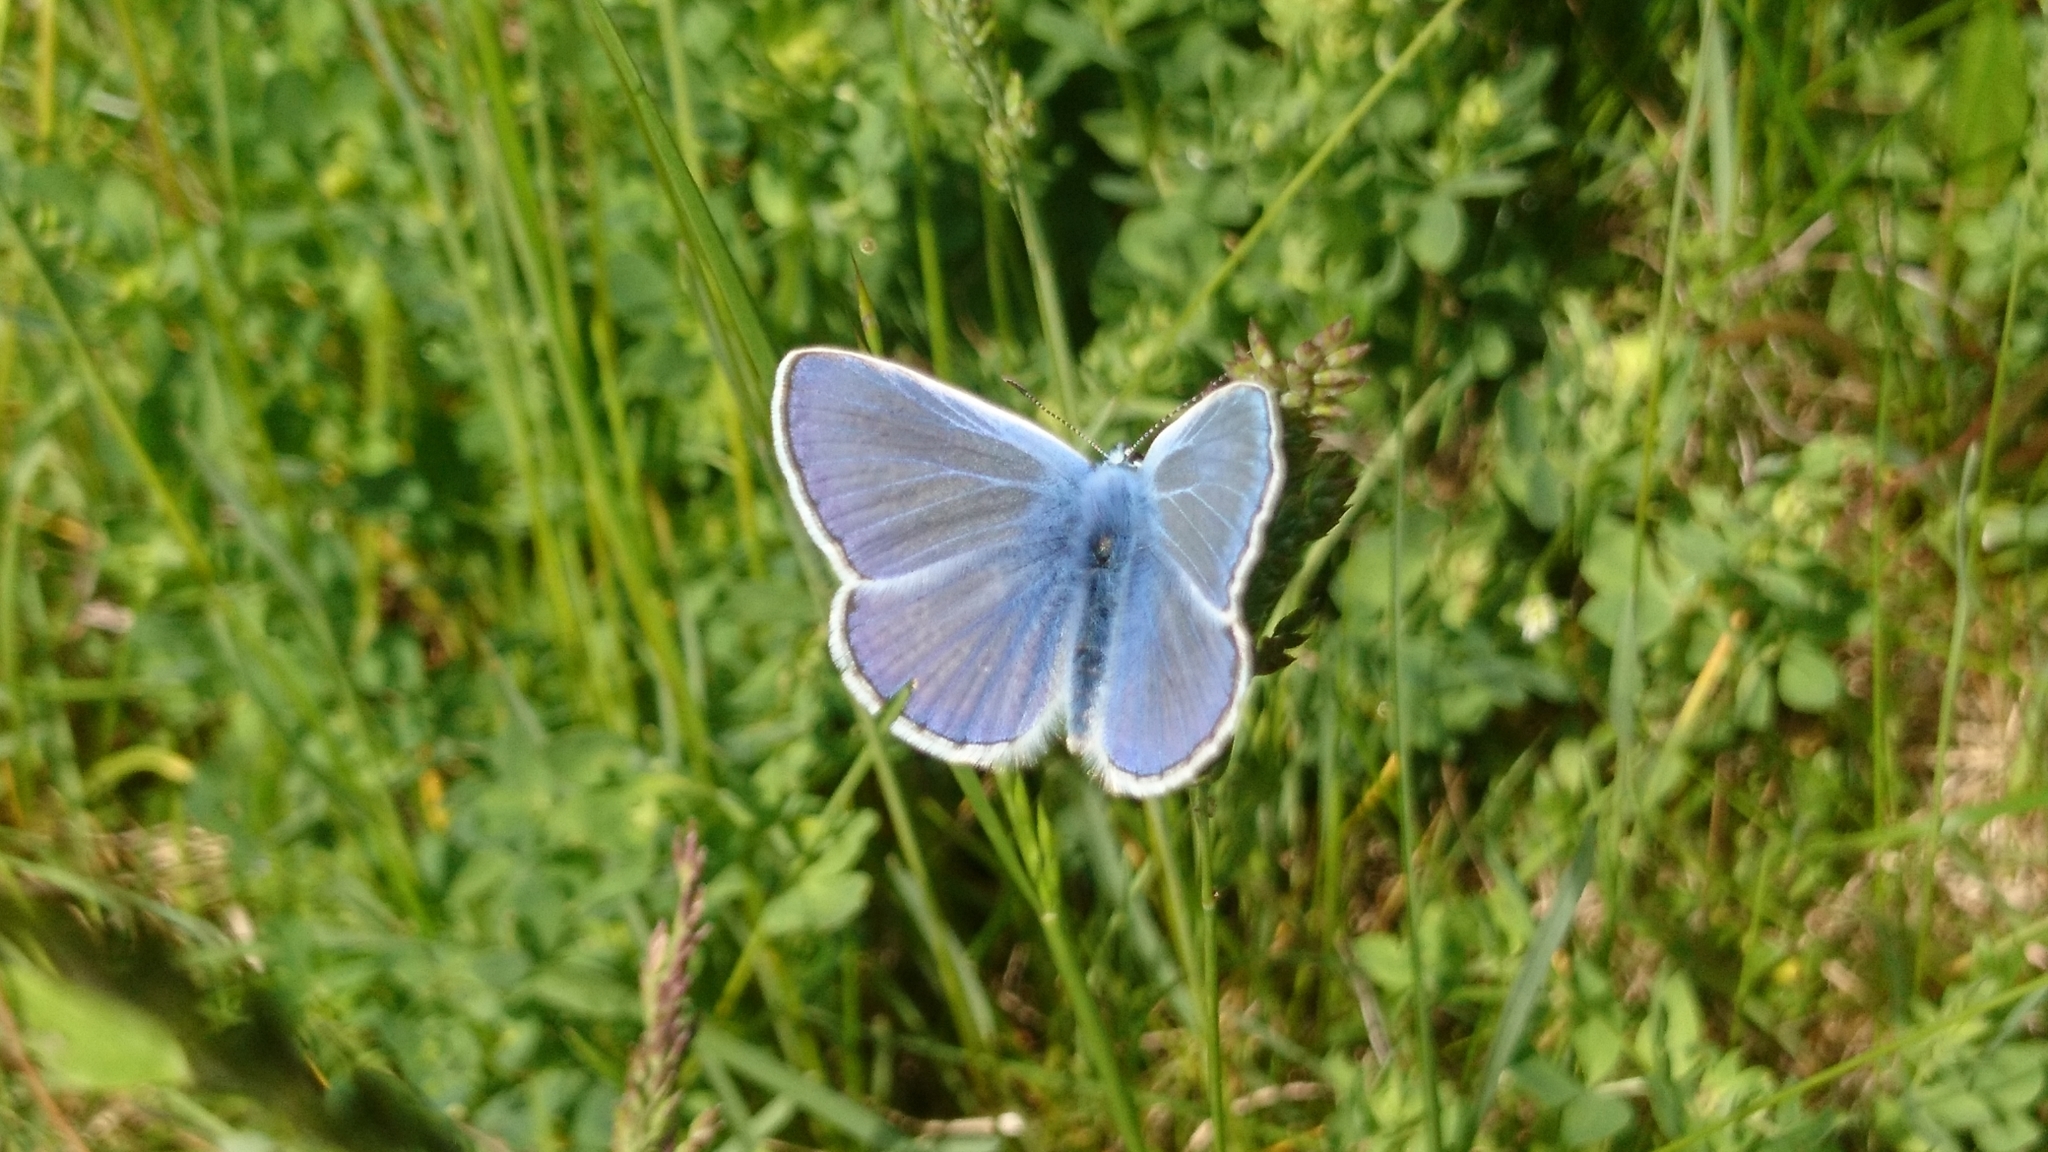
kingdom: Animalia
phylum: Arthropoda
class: Insecta
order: Lepidoptera
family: Lycaenidae
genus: Polyommatus
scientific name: Polyommatus icarus
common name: Common blue
